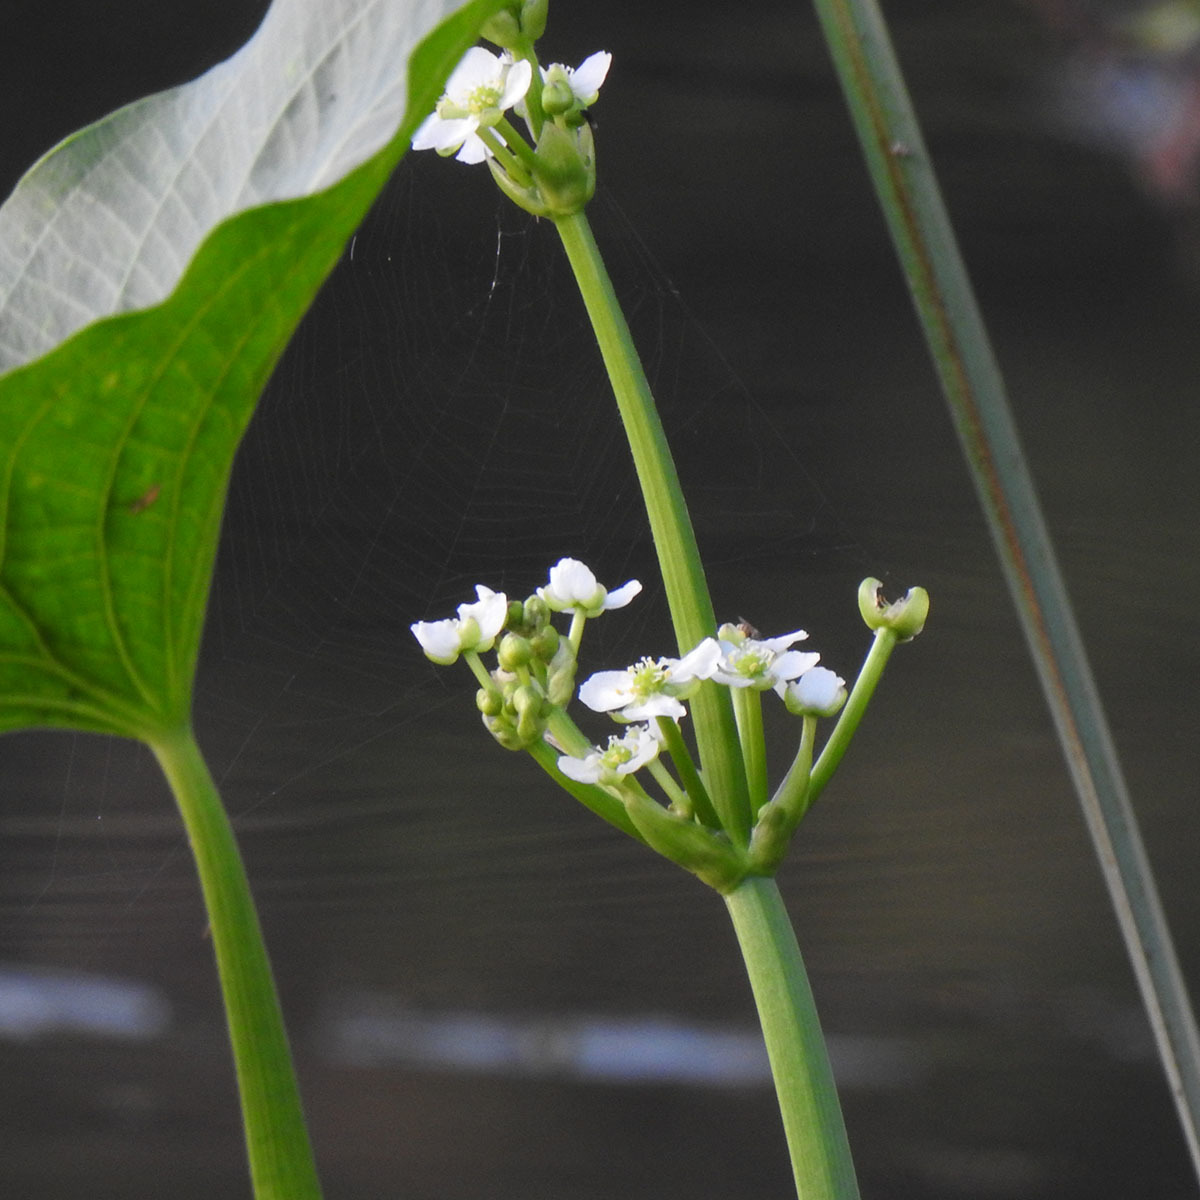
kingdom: Plantae
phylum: Tracheophyta
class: Liliopsida
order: Alismatales
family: Alismataceae
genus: Limnophyton
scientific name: Limnophyton obtusifolium
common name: Arrow head
